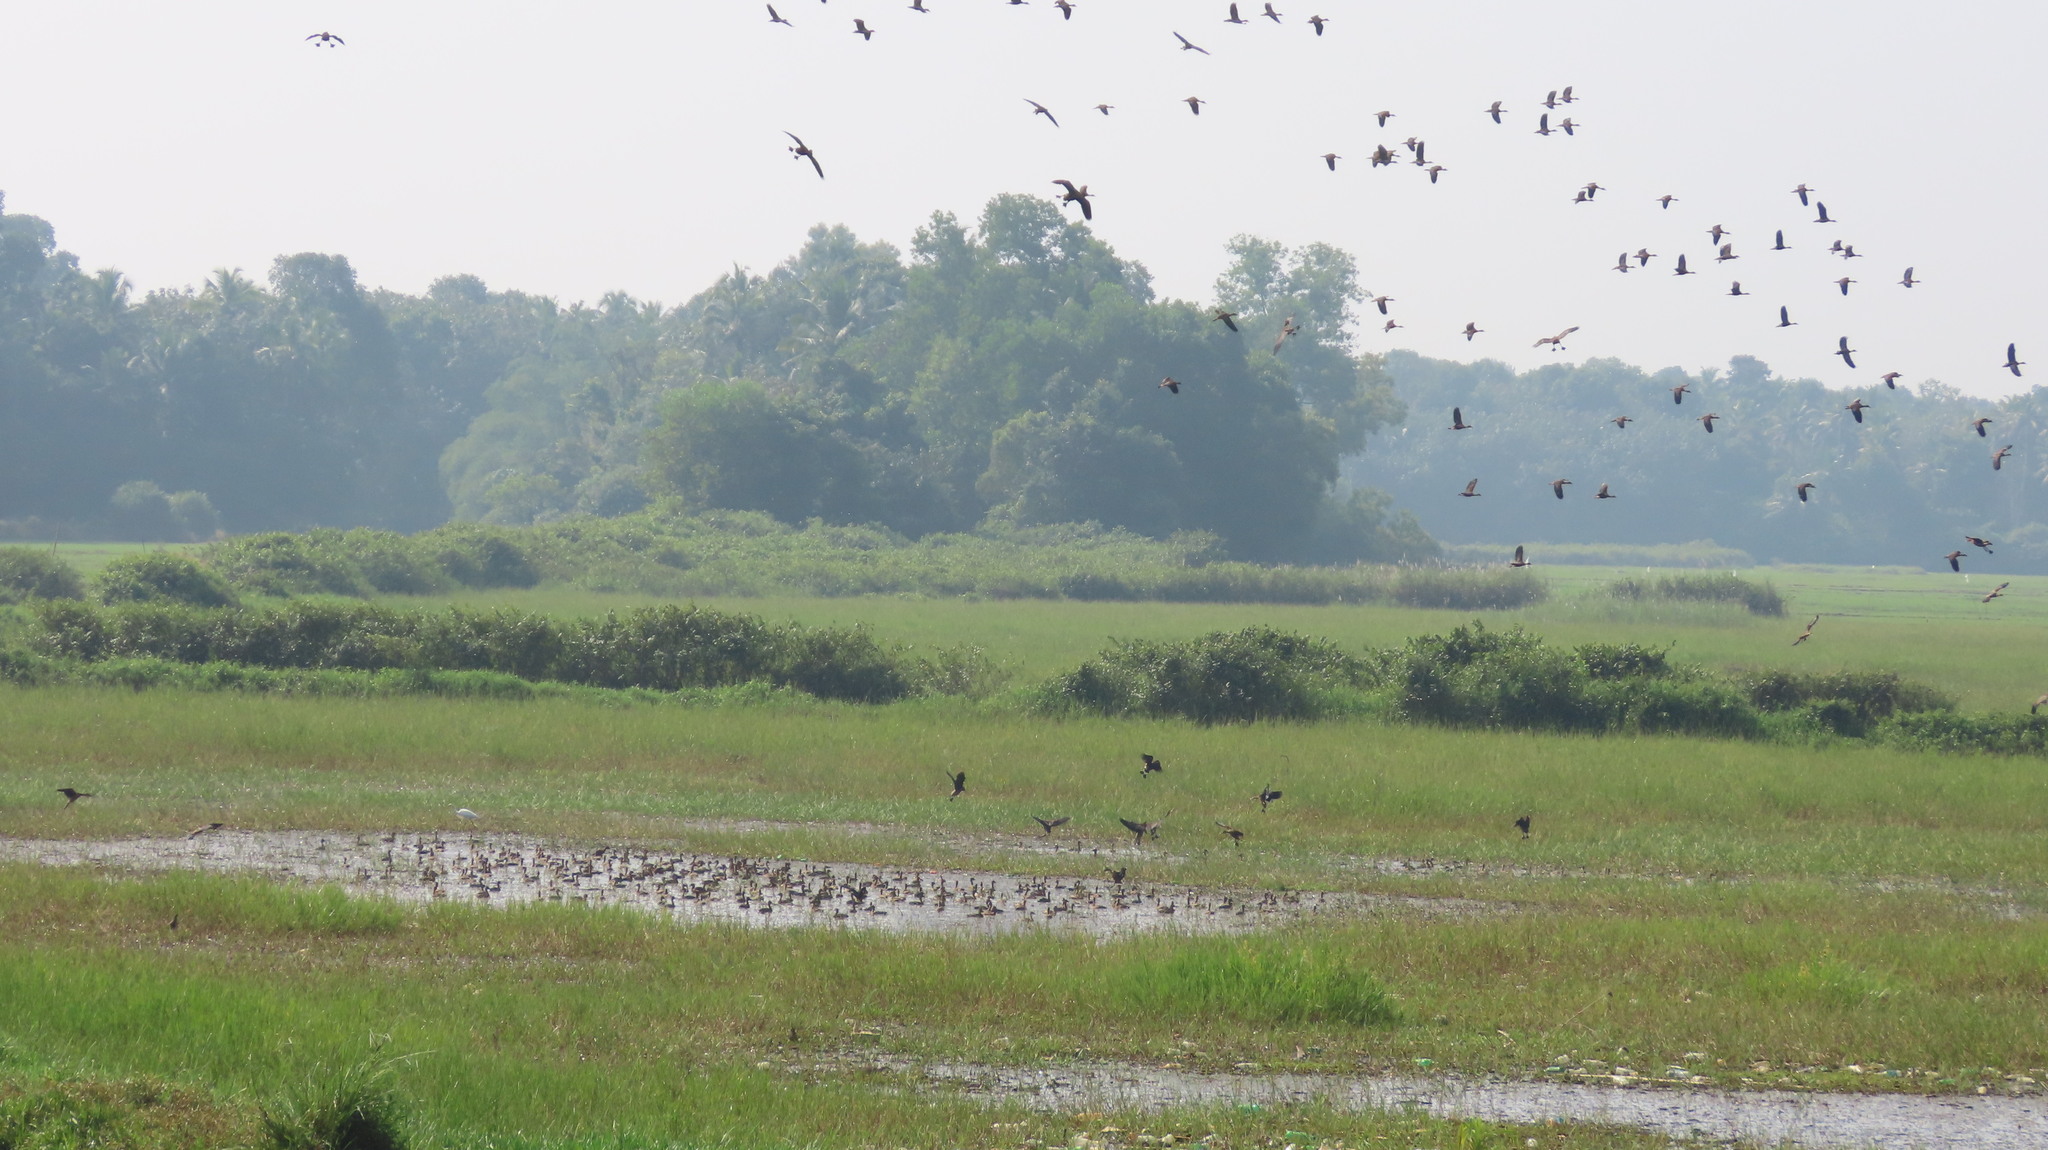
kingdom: Animalia
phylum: Chordata
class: Aves
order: Anseriformes
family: Anatidae
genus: Dendrocygna
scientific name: Dendrocygna javanica
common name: Lesser whistling-duck
